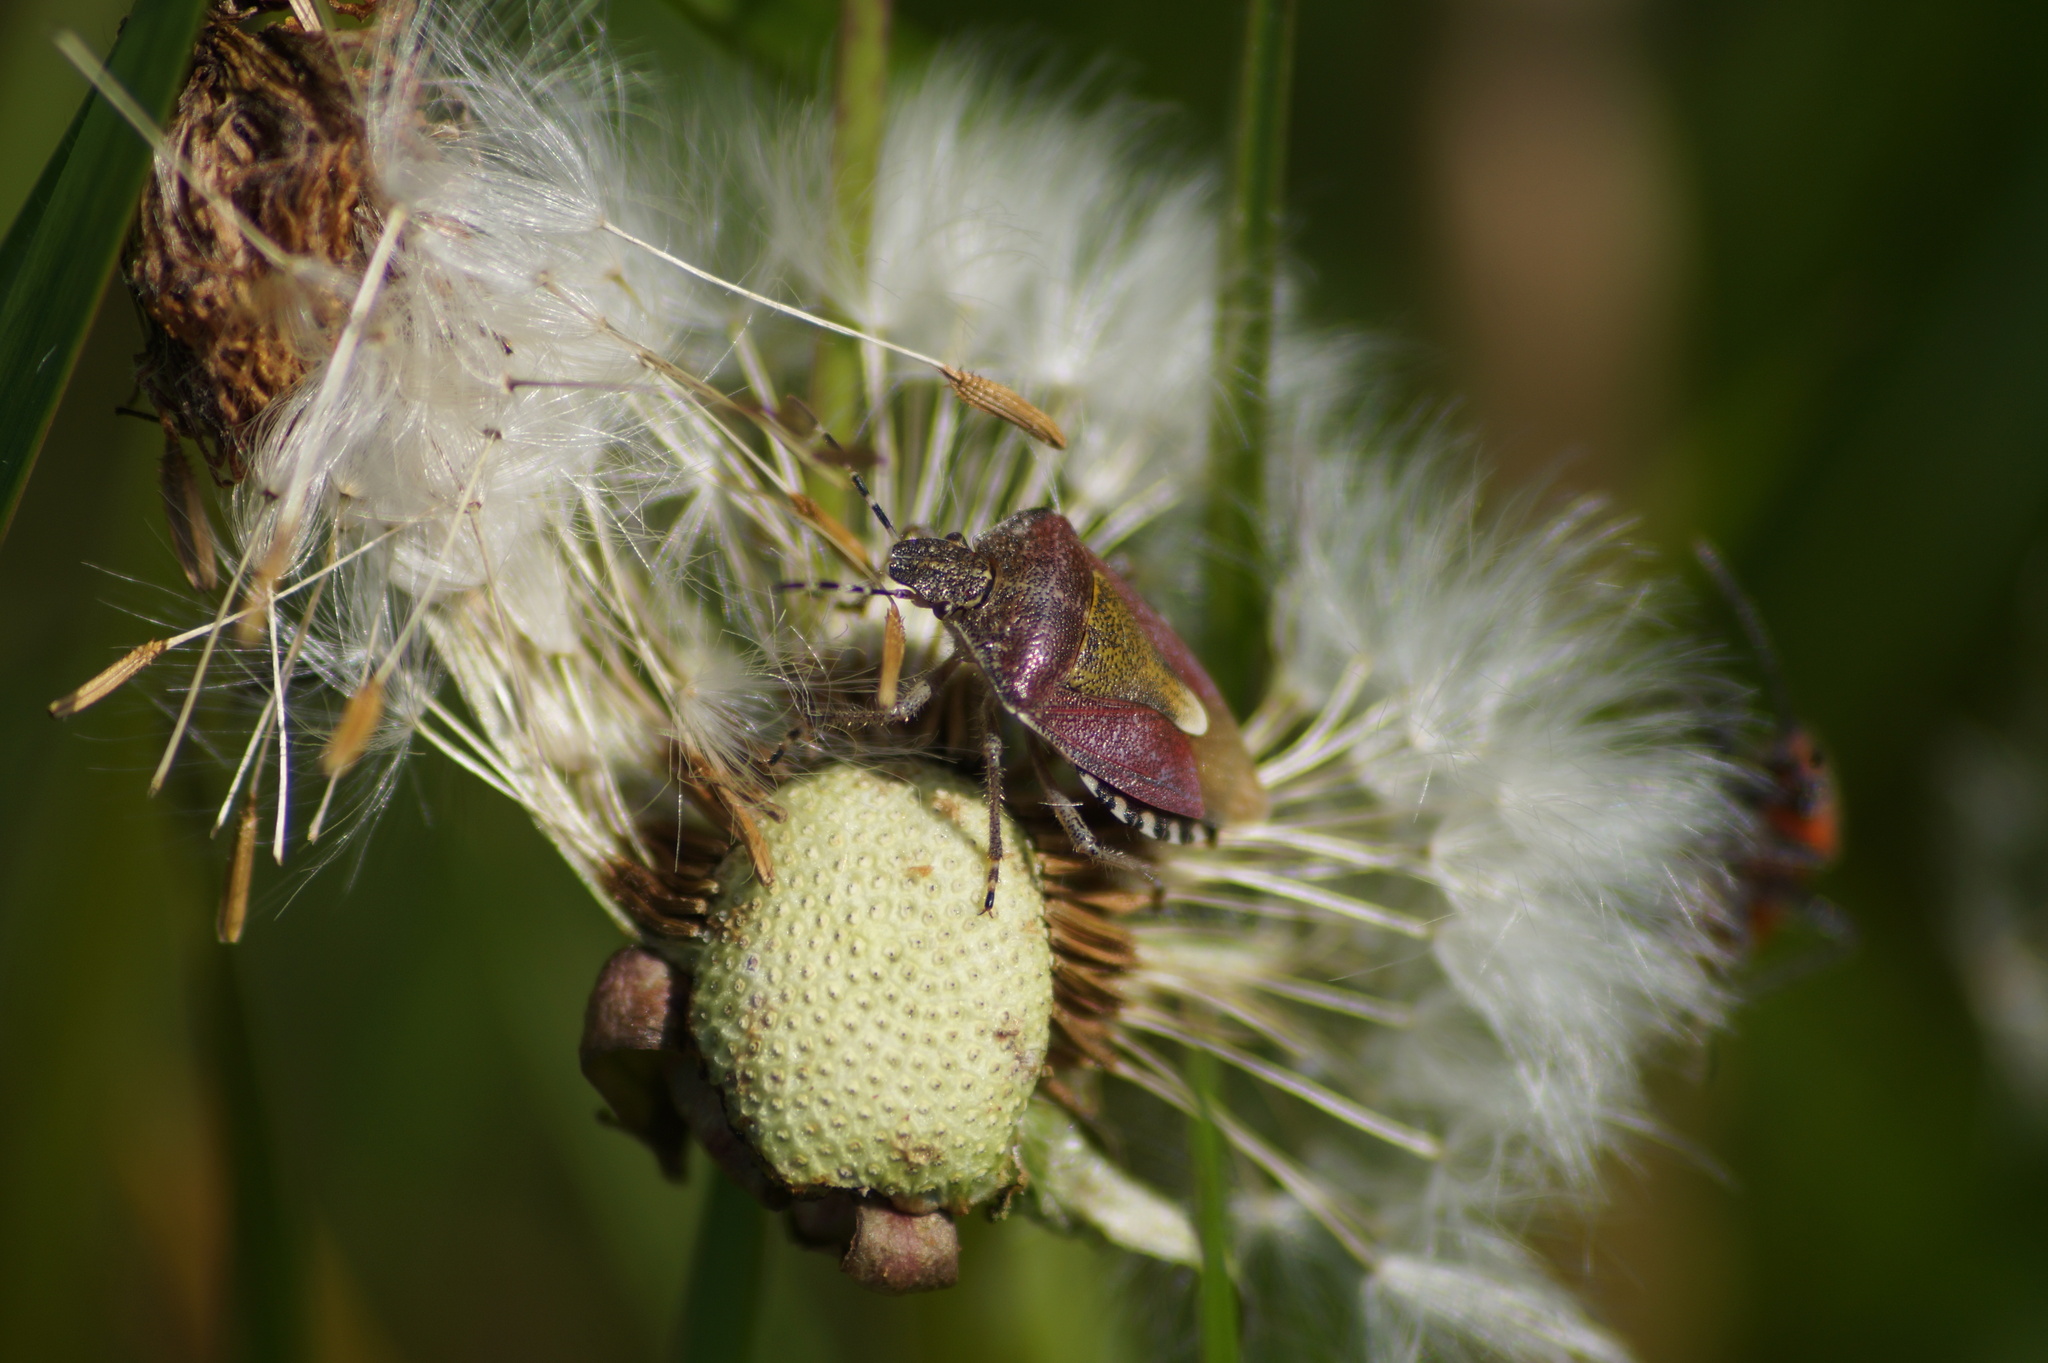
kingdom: Animalia
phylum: Arthropoda
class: Insecta
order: Hemiptera
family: Pentatomidae
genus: Dolycoris
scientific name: Dolycoris baccarum
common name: Sloe bug
